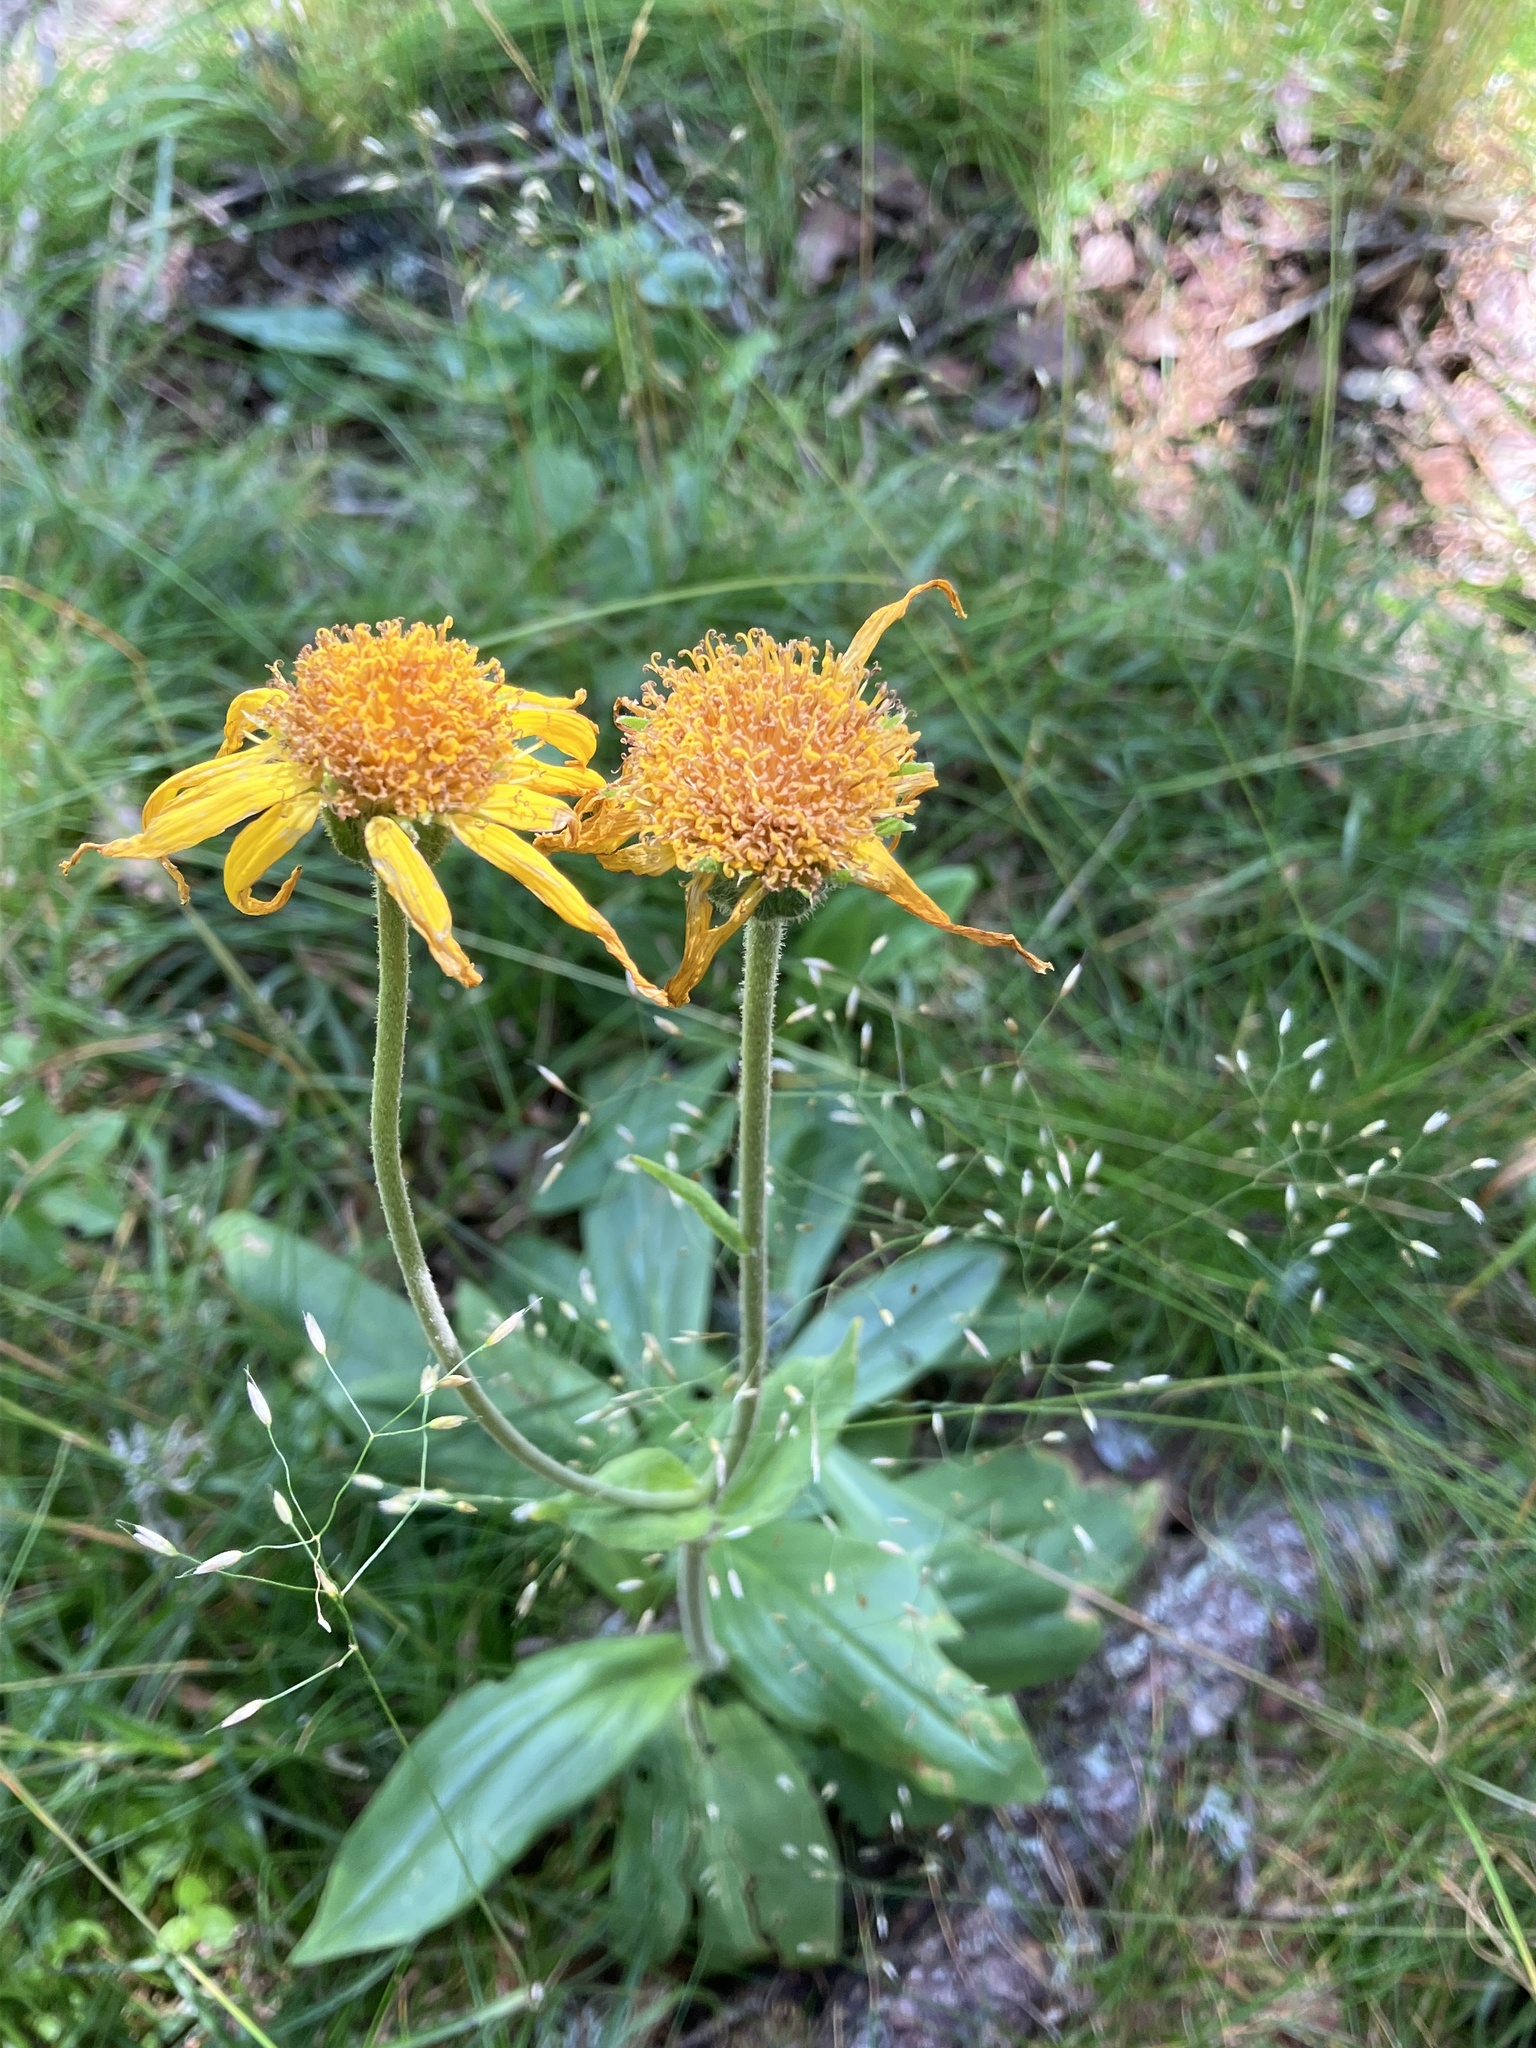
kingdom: Plantae
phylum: Tracheophyta
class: Magnoliopsida
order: Asterales
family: Asteraceae
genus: Arnica
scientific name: Arnica montana
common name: Leopard's bane
